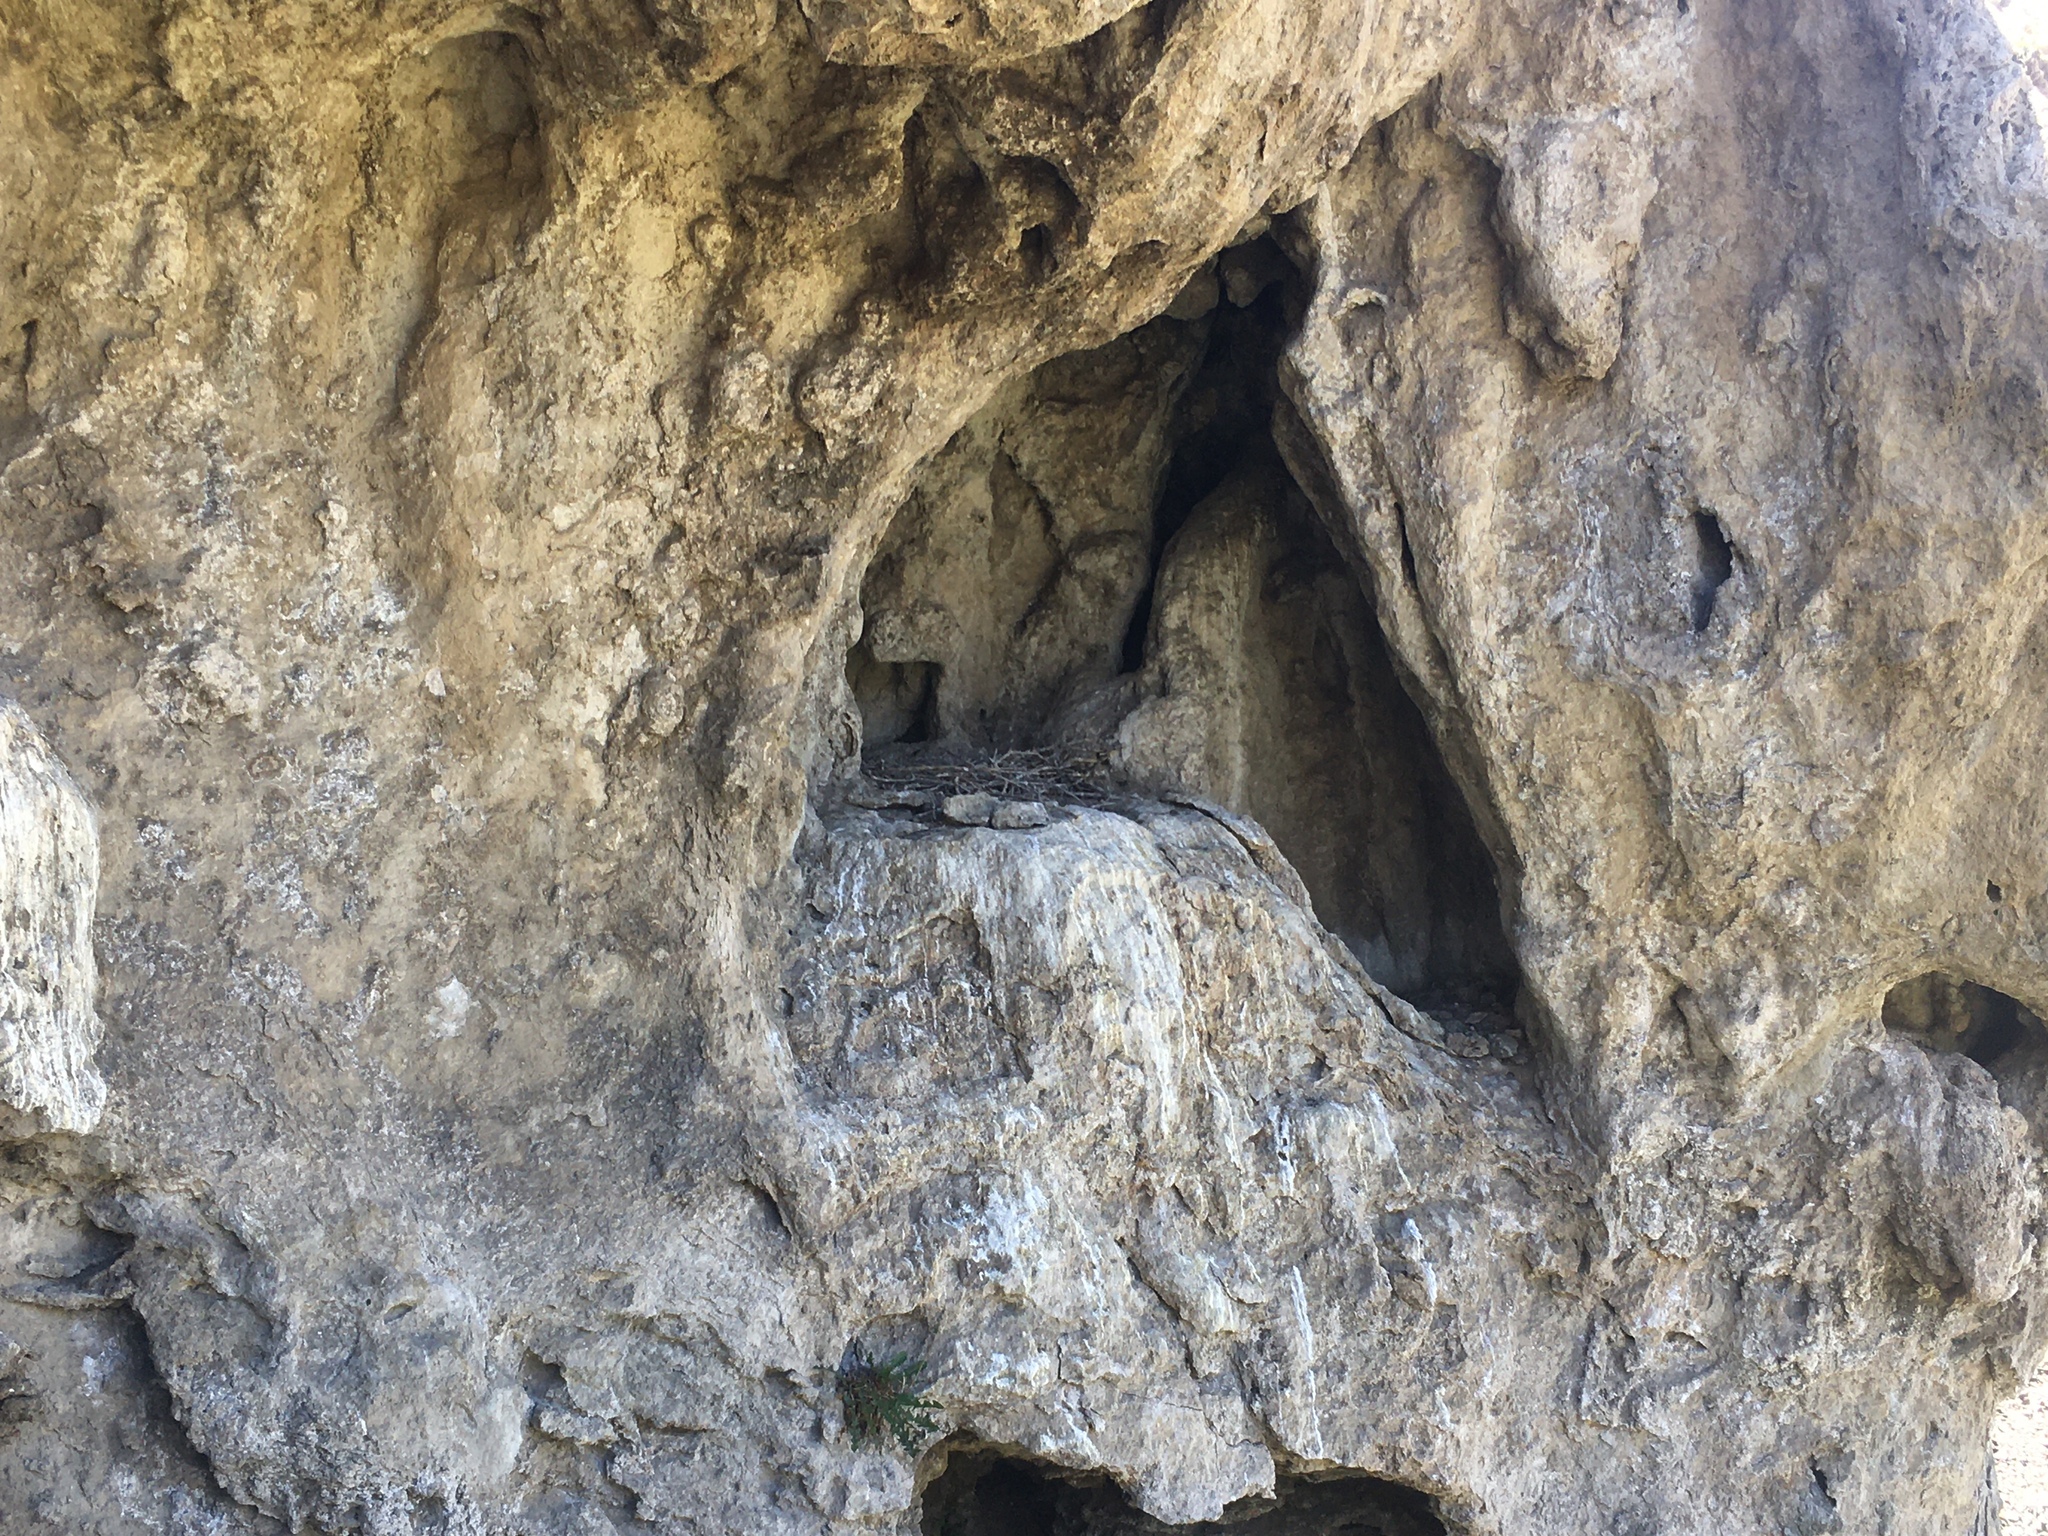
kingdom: Animalia
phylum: Chordata
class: Aves
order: Accipitriformes
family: Cathartidae
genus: Coragyps
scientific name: Coragyps atratus
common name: Black vulture
